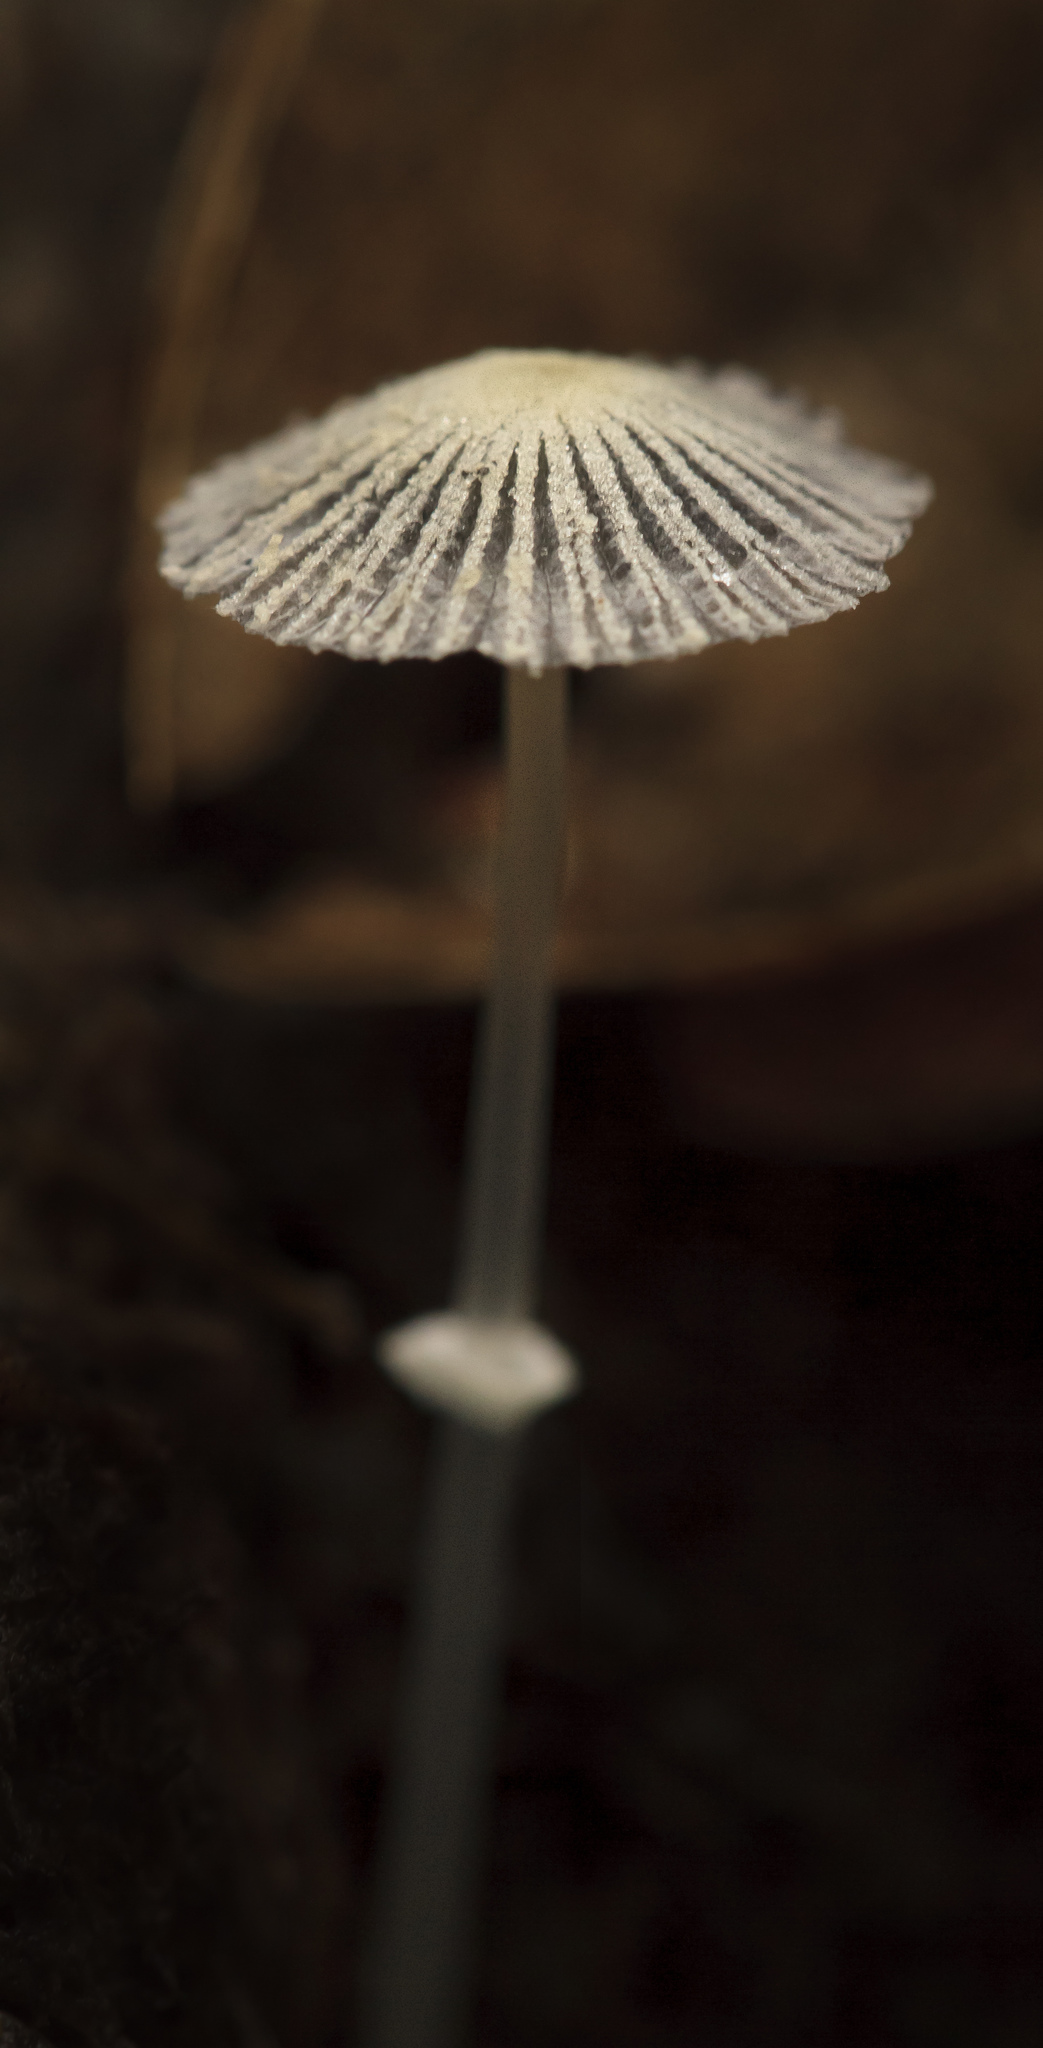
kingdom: Fungi
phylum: Basidiomycota
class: Agaricomycetes
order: Agaricales
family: Psathyrellaceae
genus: Narcissea
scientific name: Narcissea ephemeroides
